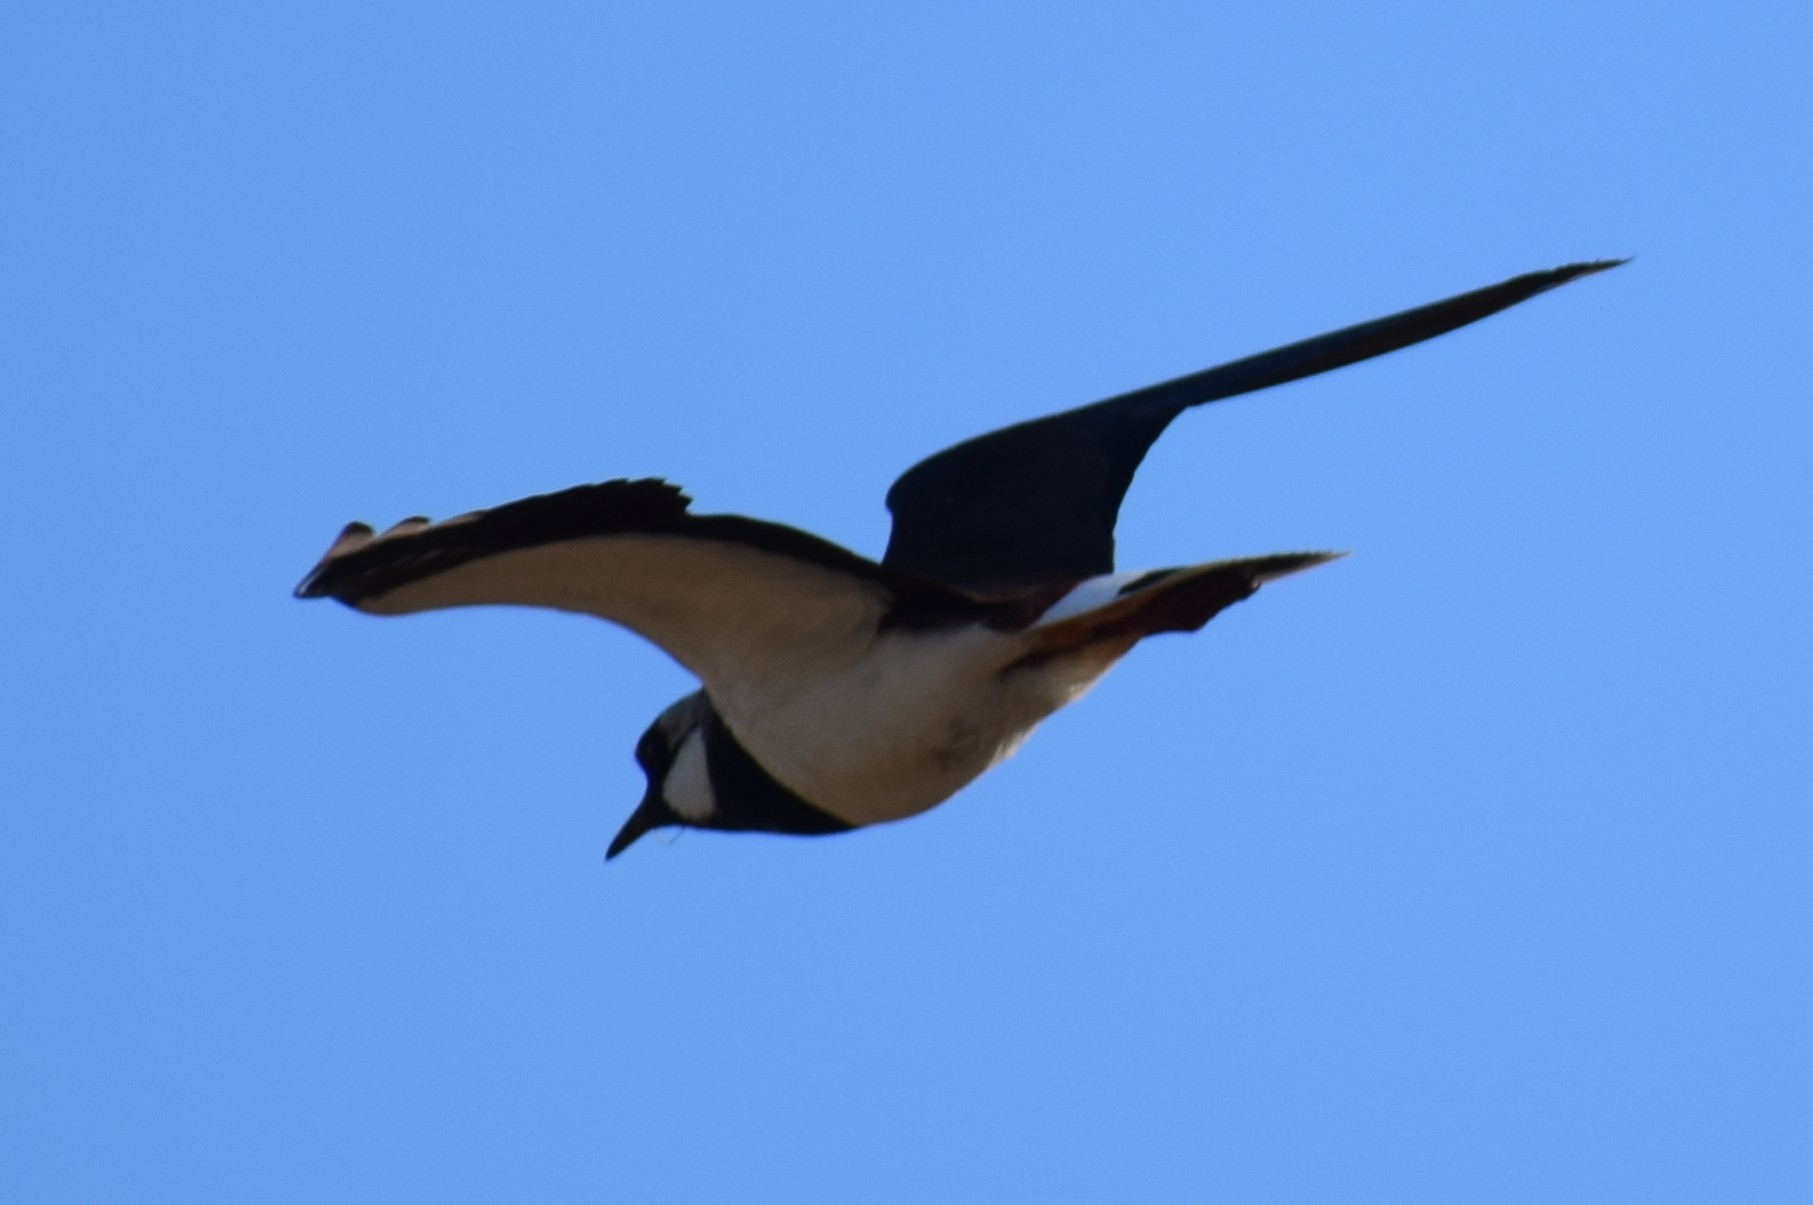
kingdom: Animalia
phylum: Chordata
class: Aves
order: Charadriiformes
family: Charadriidae
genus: Vanellus
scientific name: Vanellus vanellus
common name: Northern lapwing
